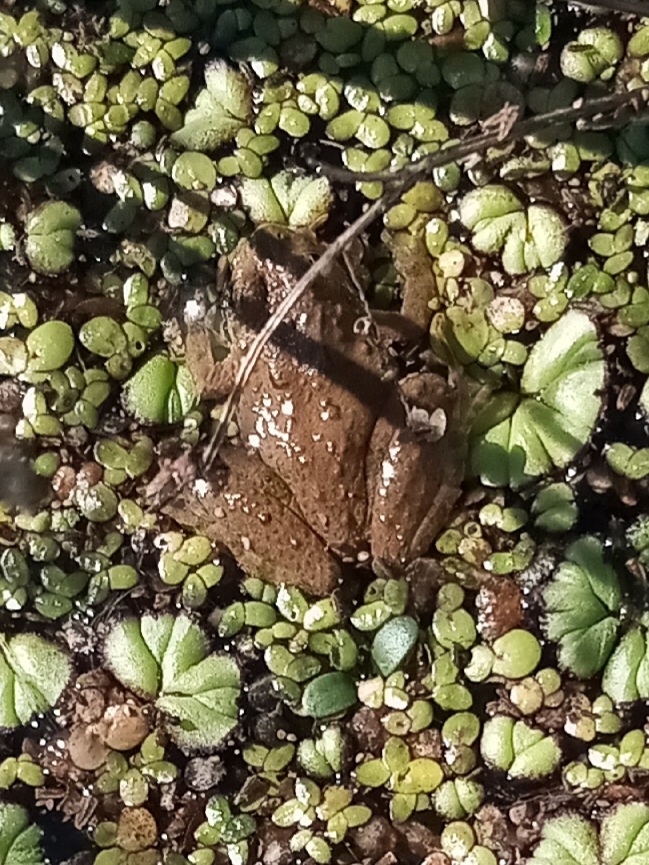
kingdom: Animalia
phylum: Chordata
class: Amphibia
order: Anura
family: Ranidae
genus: Lithobates
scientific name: Lithobates catesbeianus
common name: American bullfrog
